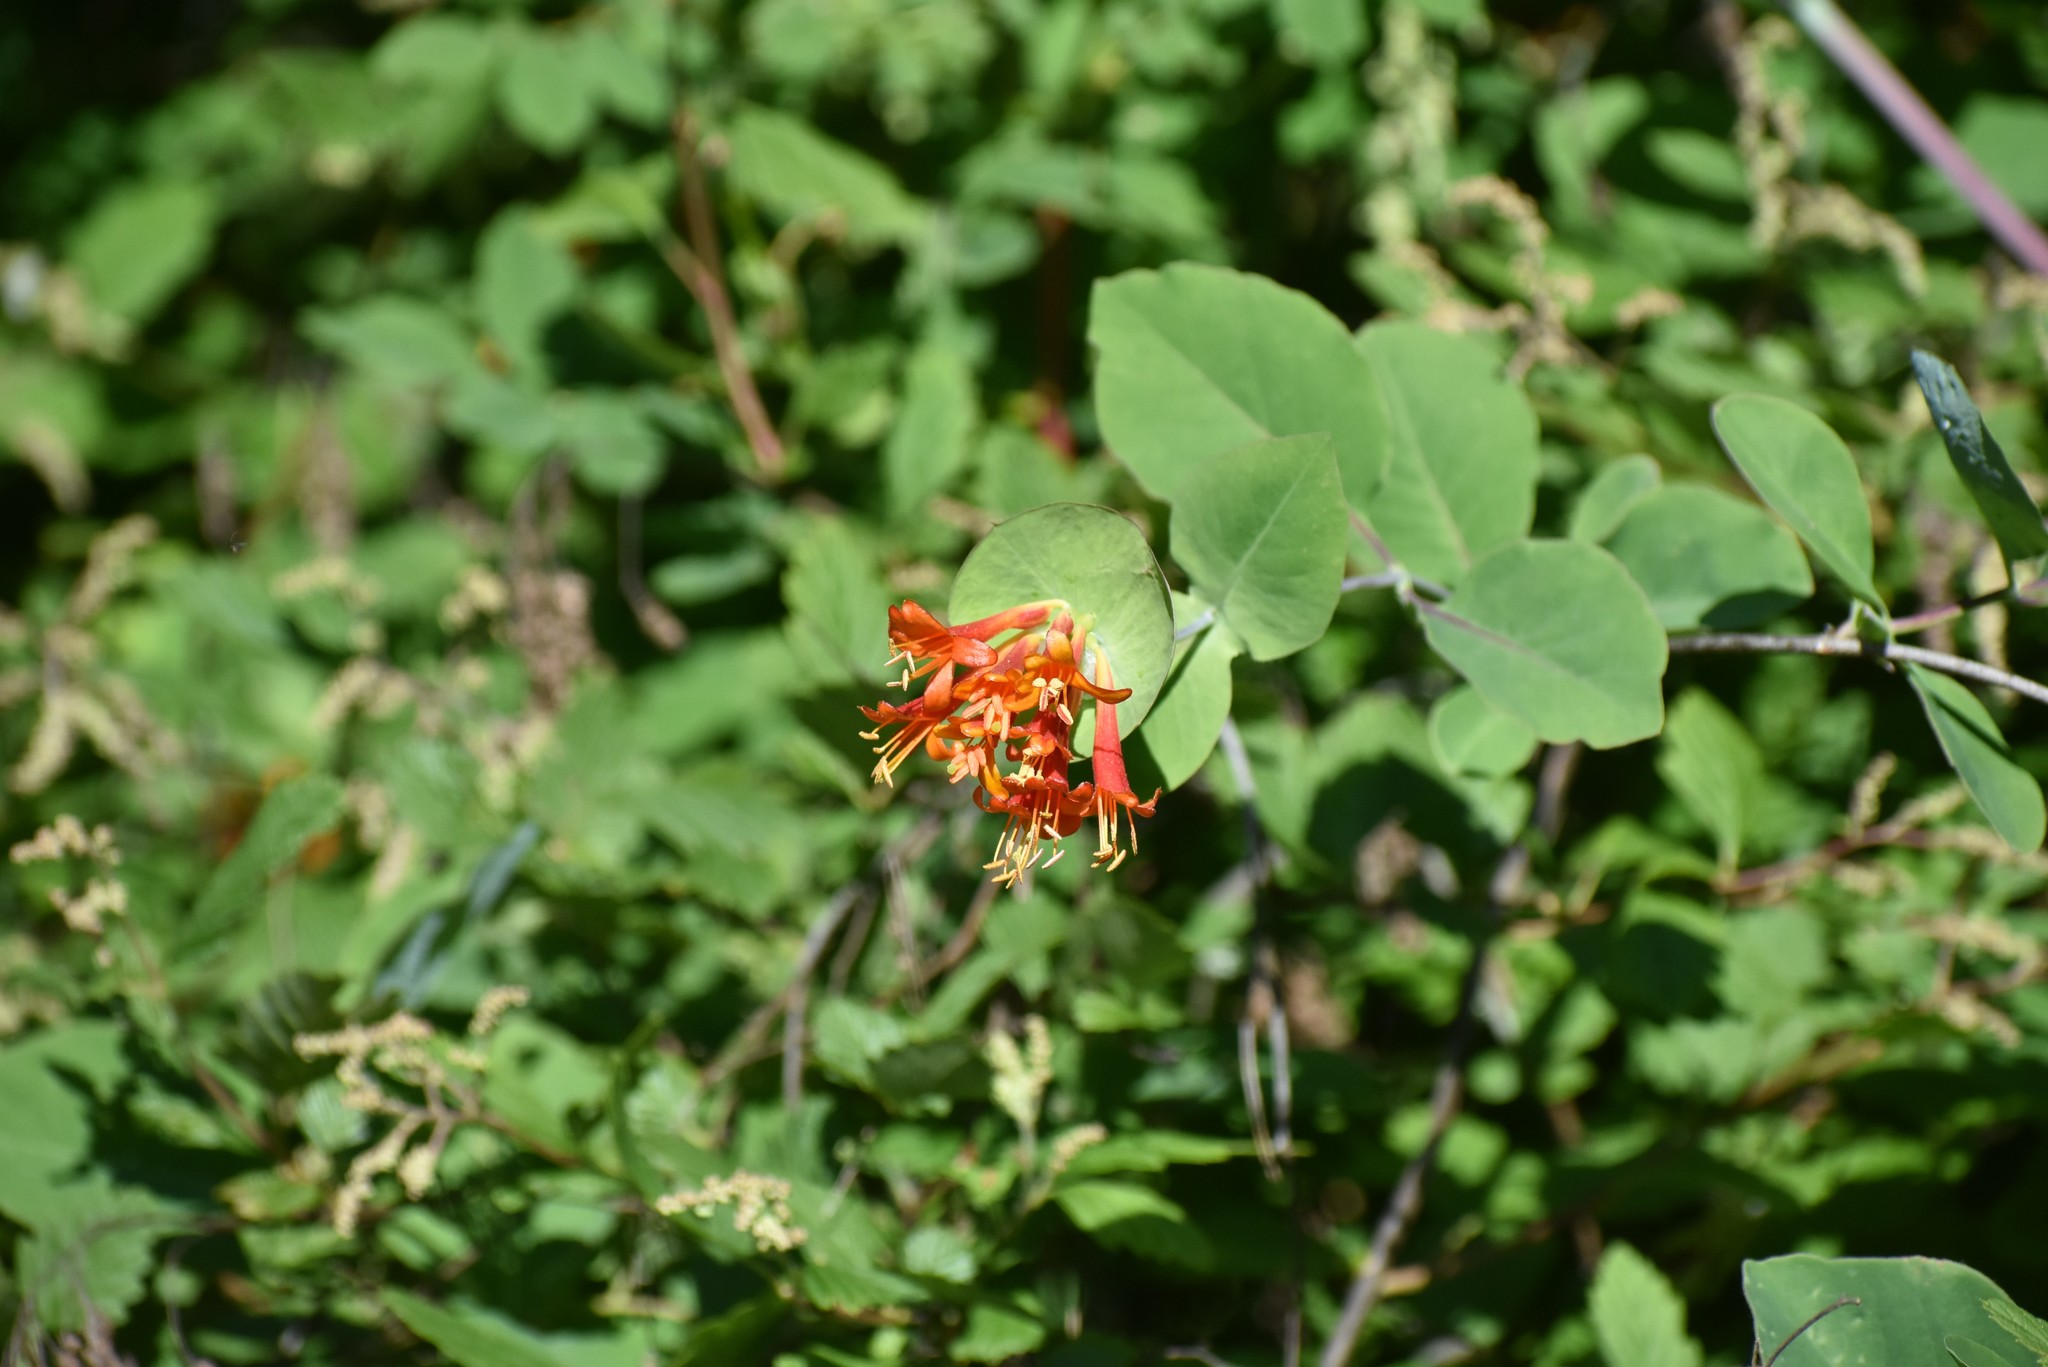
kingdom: Plantae
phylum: Tracheophyta
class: Magnoliopsida
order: Dipsacales
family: Caprifoliaceae
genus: Lonicera
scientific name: Lonicera ciliosa
